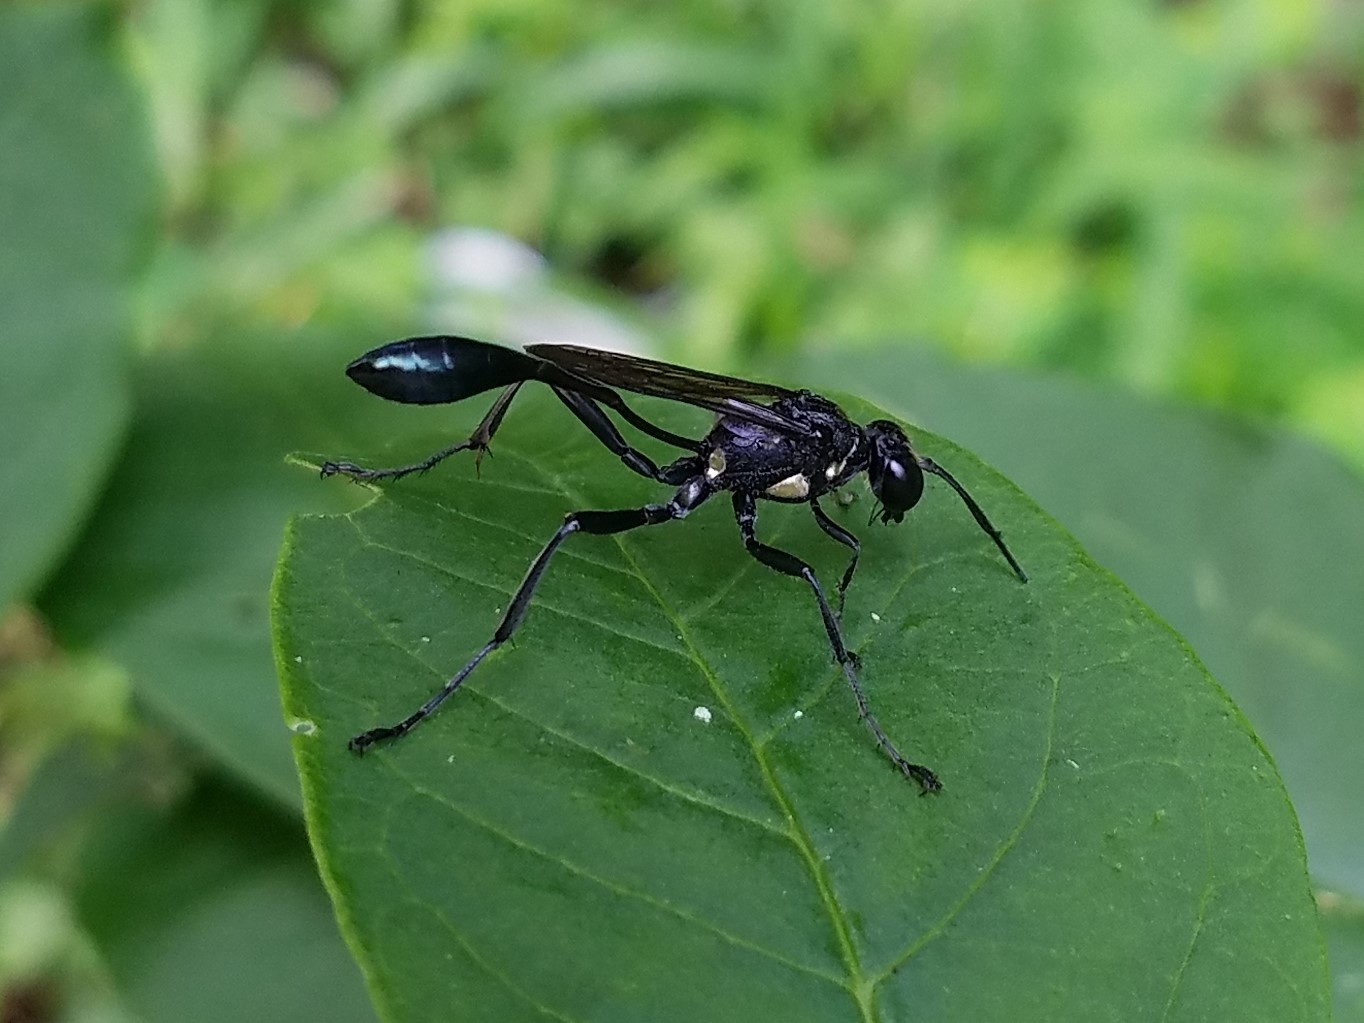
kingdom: Animalia
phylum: Arthropoda
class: Insecta
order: Hymenoptera
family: Sphecidae
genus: Eremnophila
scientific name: Eremnophila aureonotata
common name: Gold-marked thread-waisted wasp
